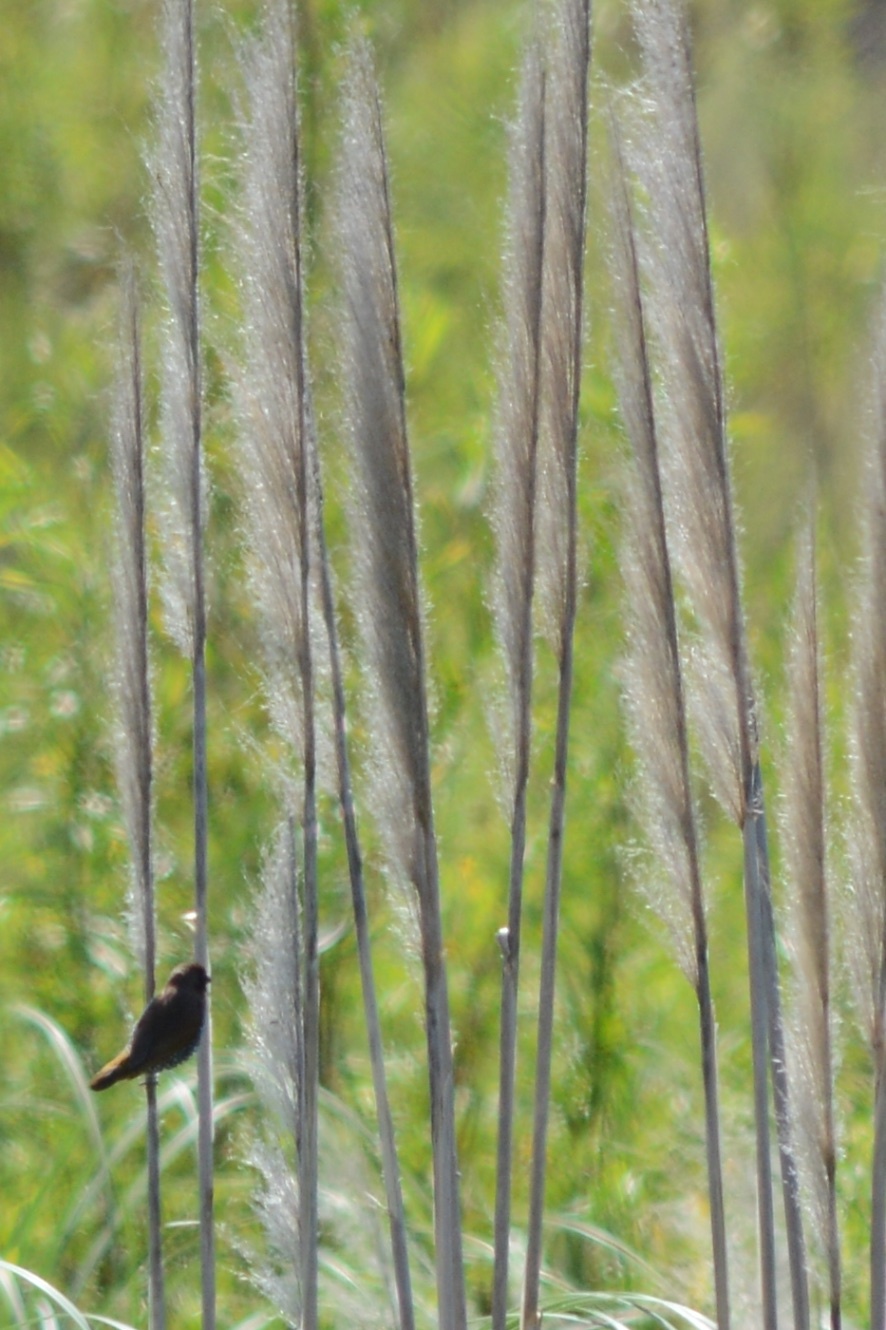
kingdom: Animalia
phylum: Chordata
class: Aves
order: Passeriformes
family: Estrildidae
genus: Lonchura
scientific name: Lonchura punctulata
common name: Scaly-breasted munia
